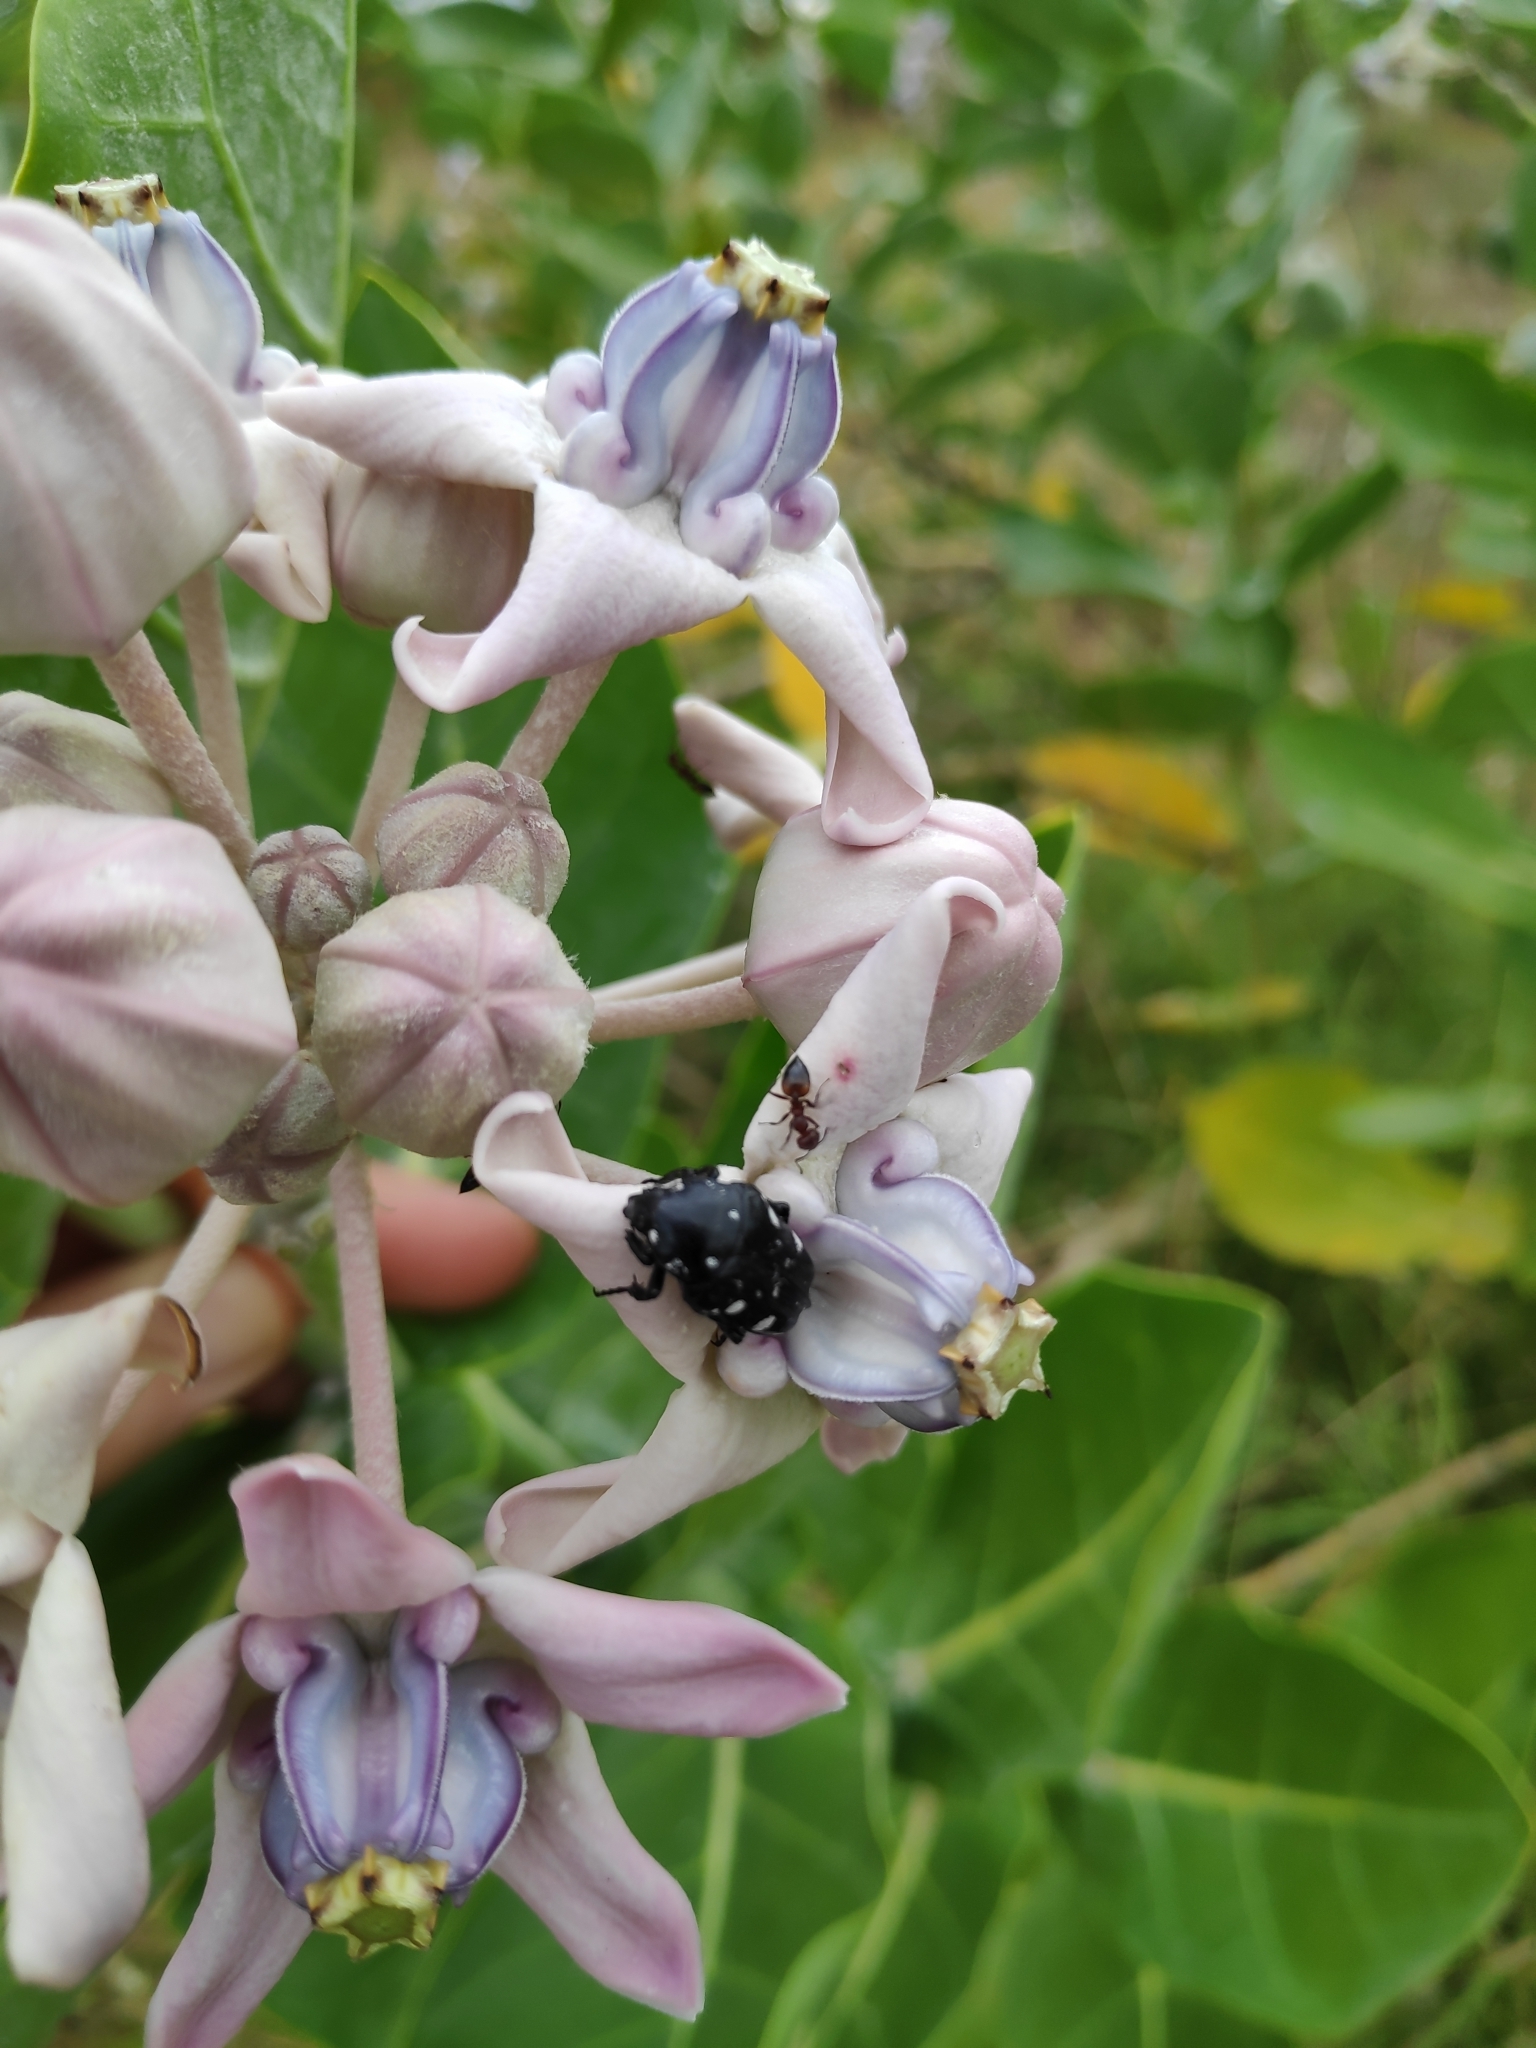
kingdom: Animalia
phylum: Arthropoda
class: Insecta
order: Coleoptera
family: Scarabaeidae
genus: Mausoleopsis
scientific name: Mausoleopsis luctifera
